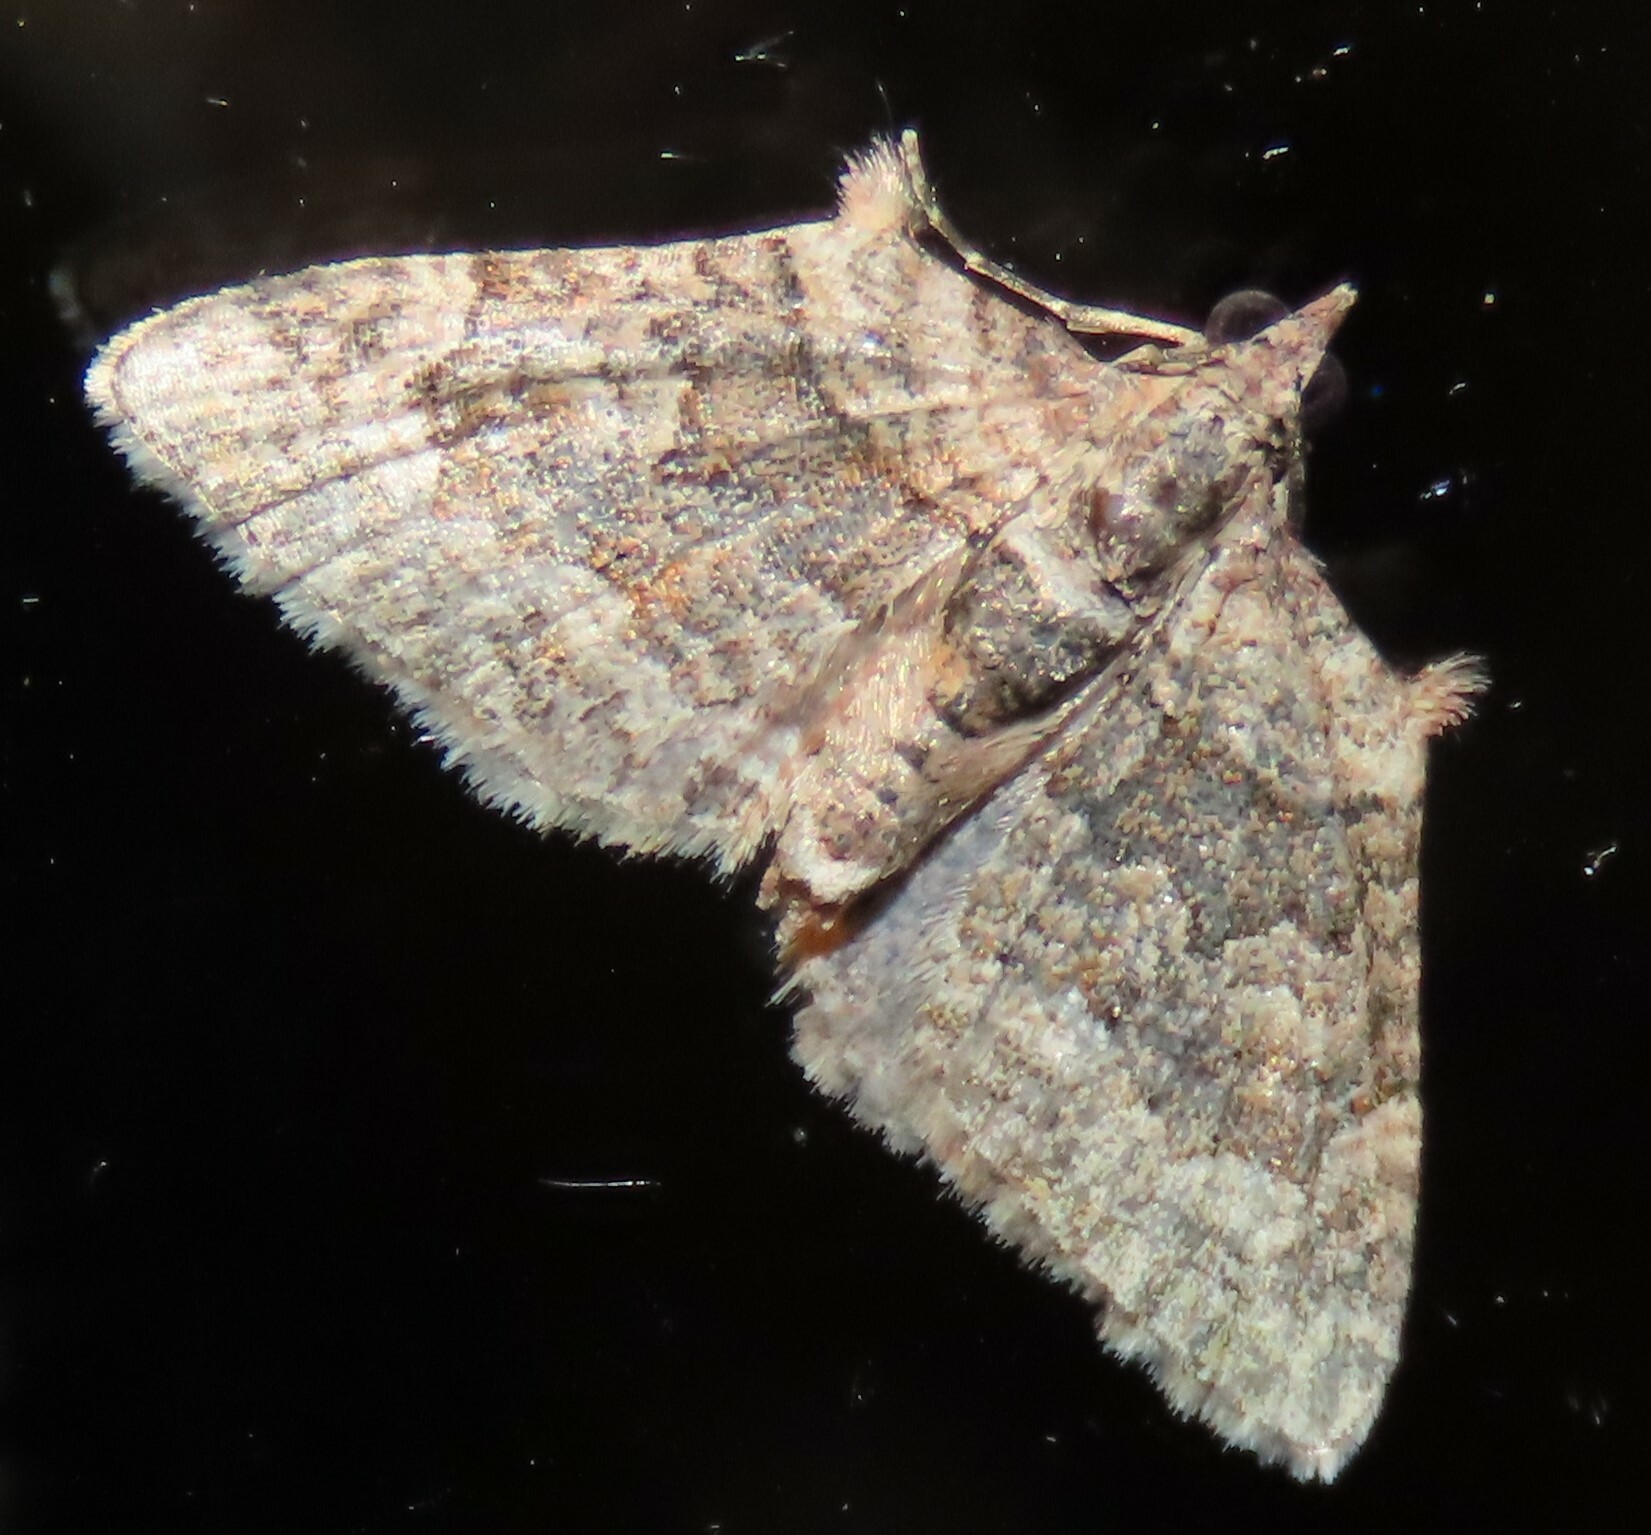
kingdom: Animalia
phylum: Arthropoda
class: Insecta
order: Lepidoptera
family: Geometridae
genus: Phrissogonus
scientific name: Phrissogonus laticostata
